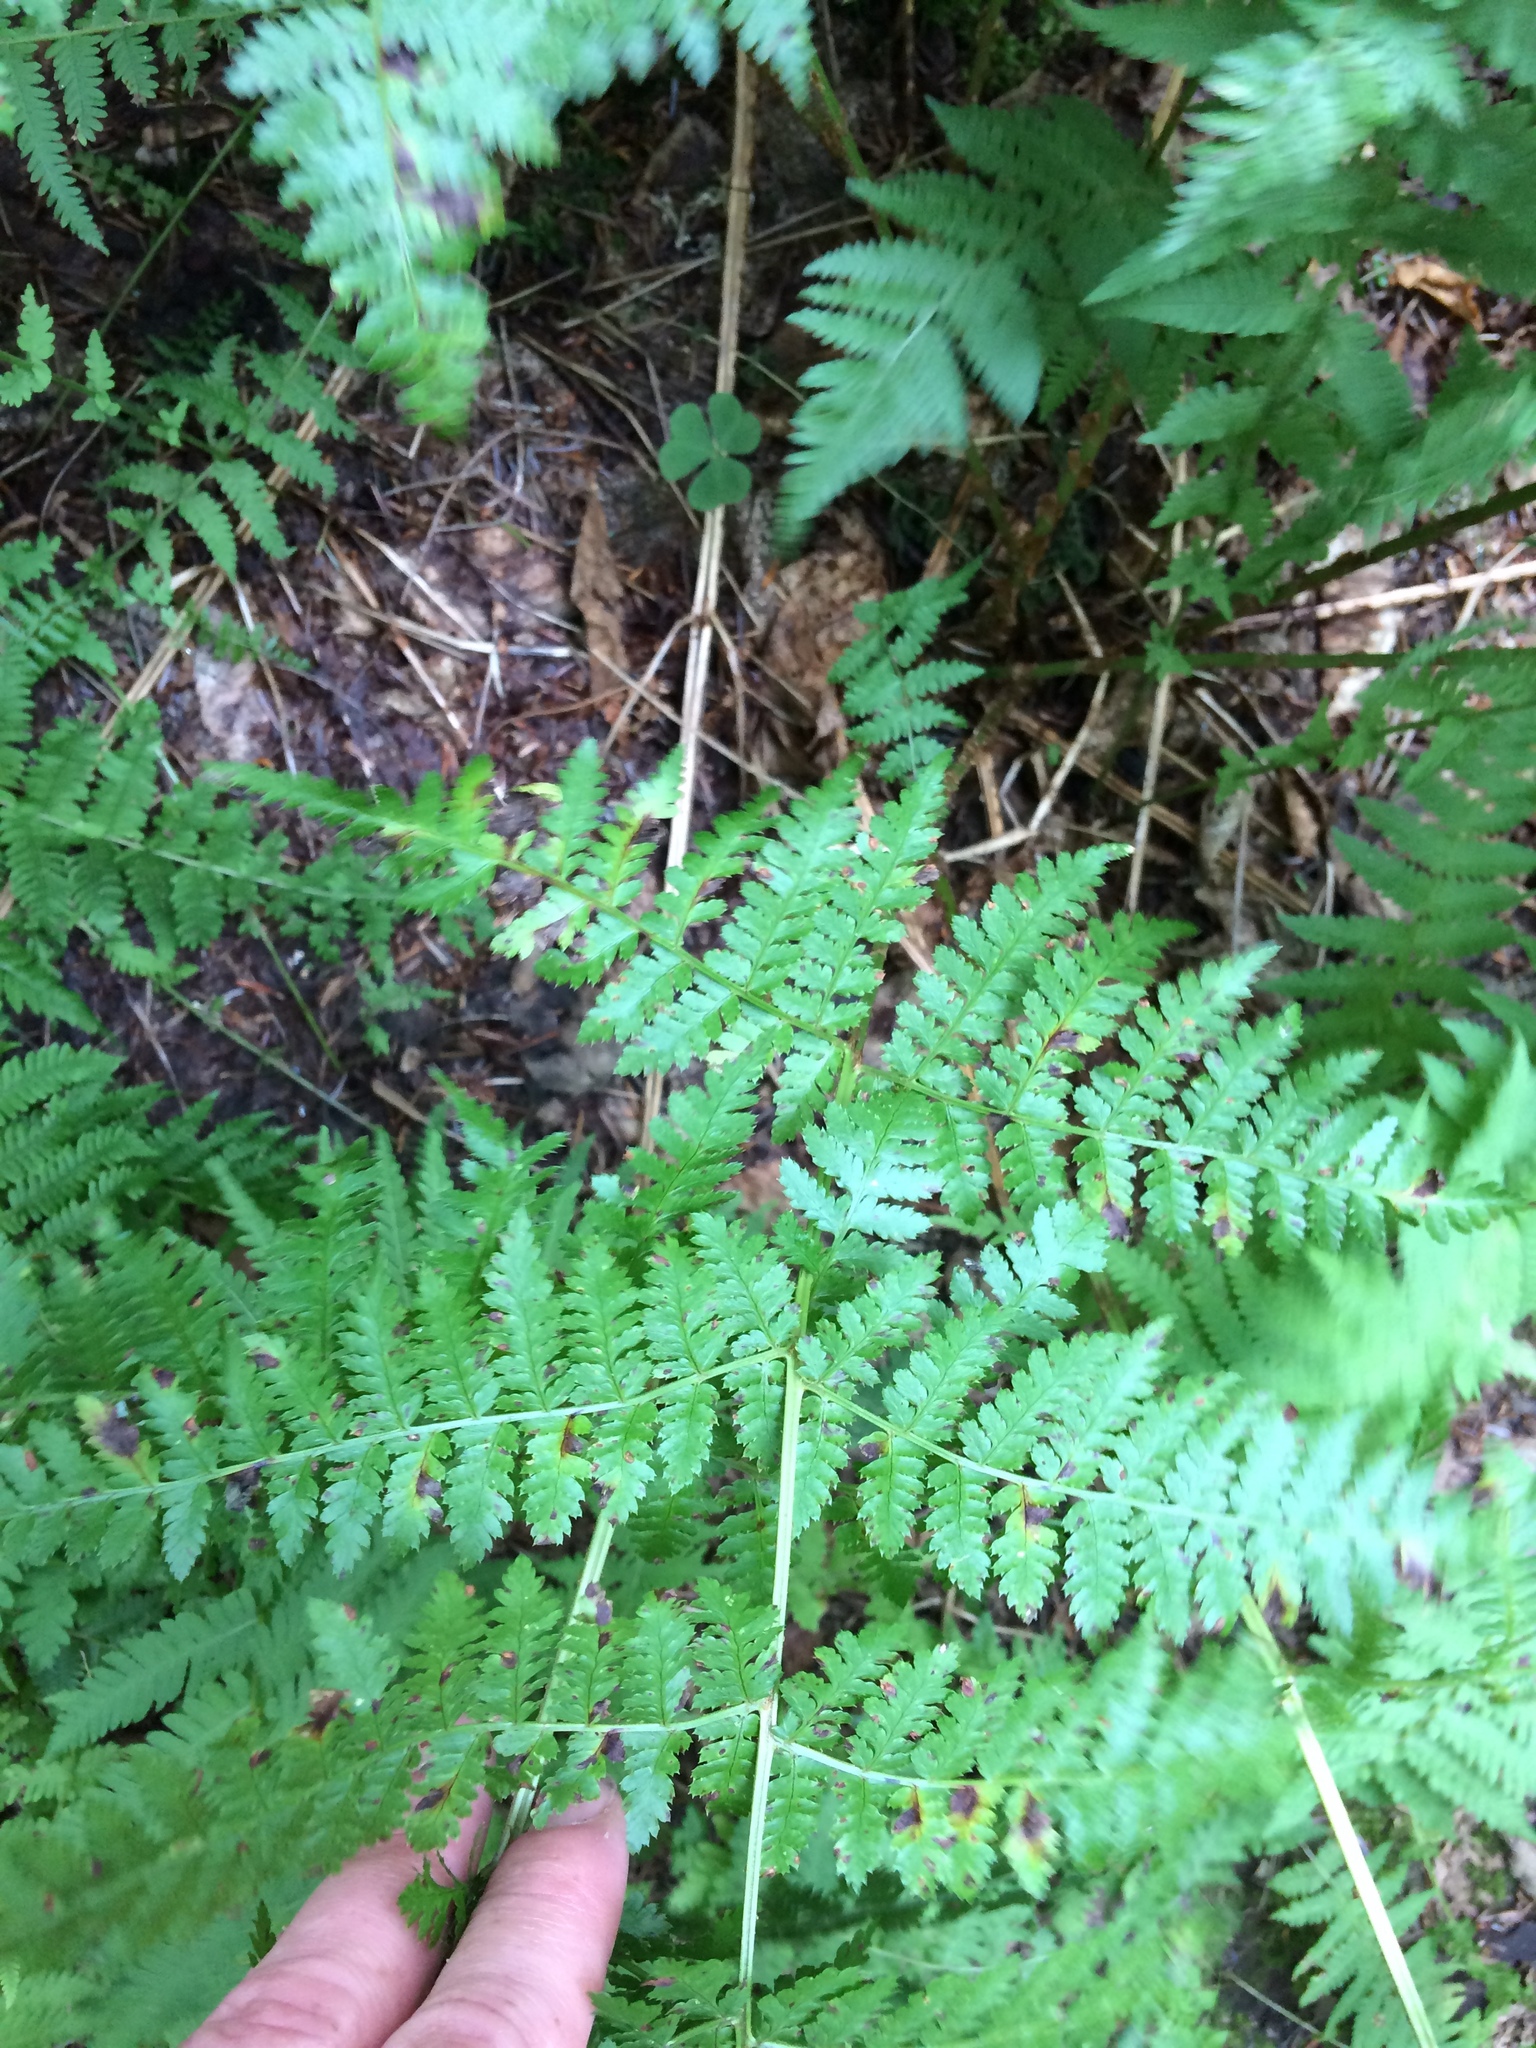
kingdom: Plantae
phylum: Tracheophyta
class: Polypodiopsida
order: Polypodiales
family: Dryopteridaceae
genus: Dryopteris
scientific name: Dryopteris campyloptera
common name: Mountain wood fern
